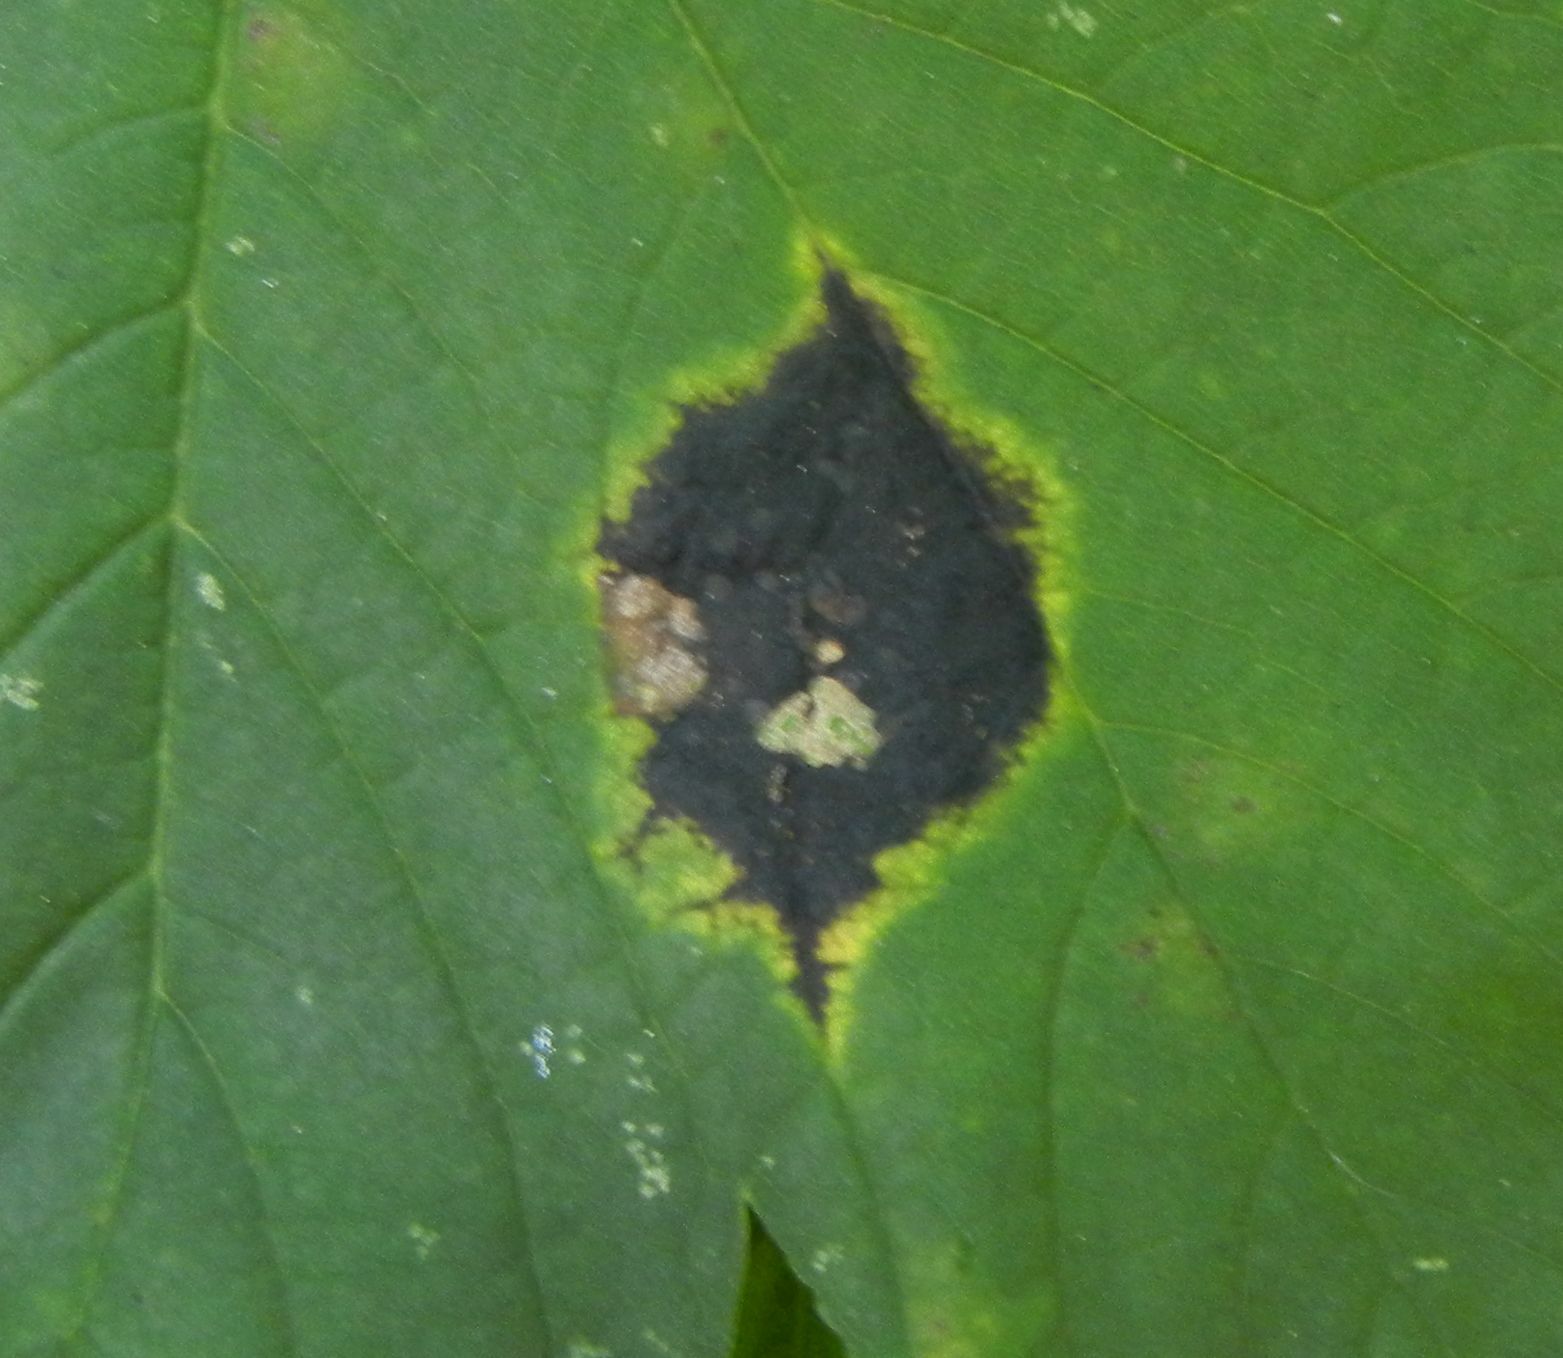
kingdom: Fungi
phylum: Ascomycota
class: Leotiomycetes
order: Rhytismatales
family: Rhytismataceae
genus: Rhytisma
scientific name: Rhytisma acerinum
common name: European tar spot
